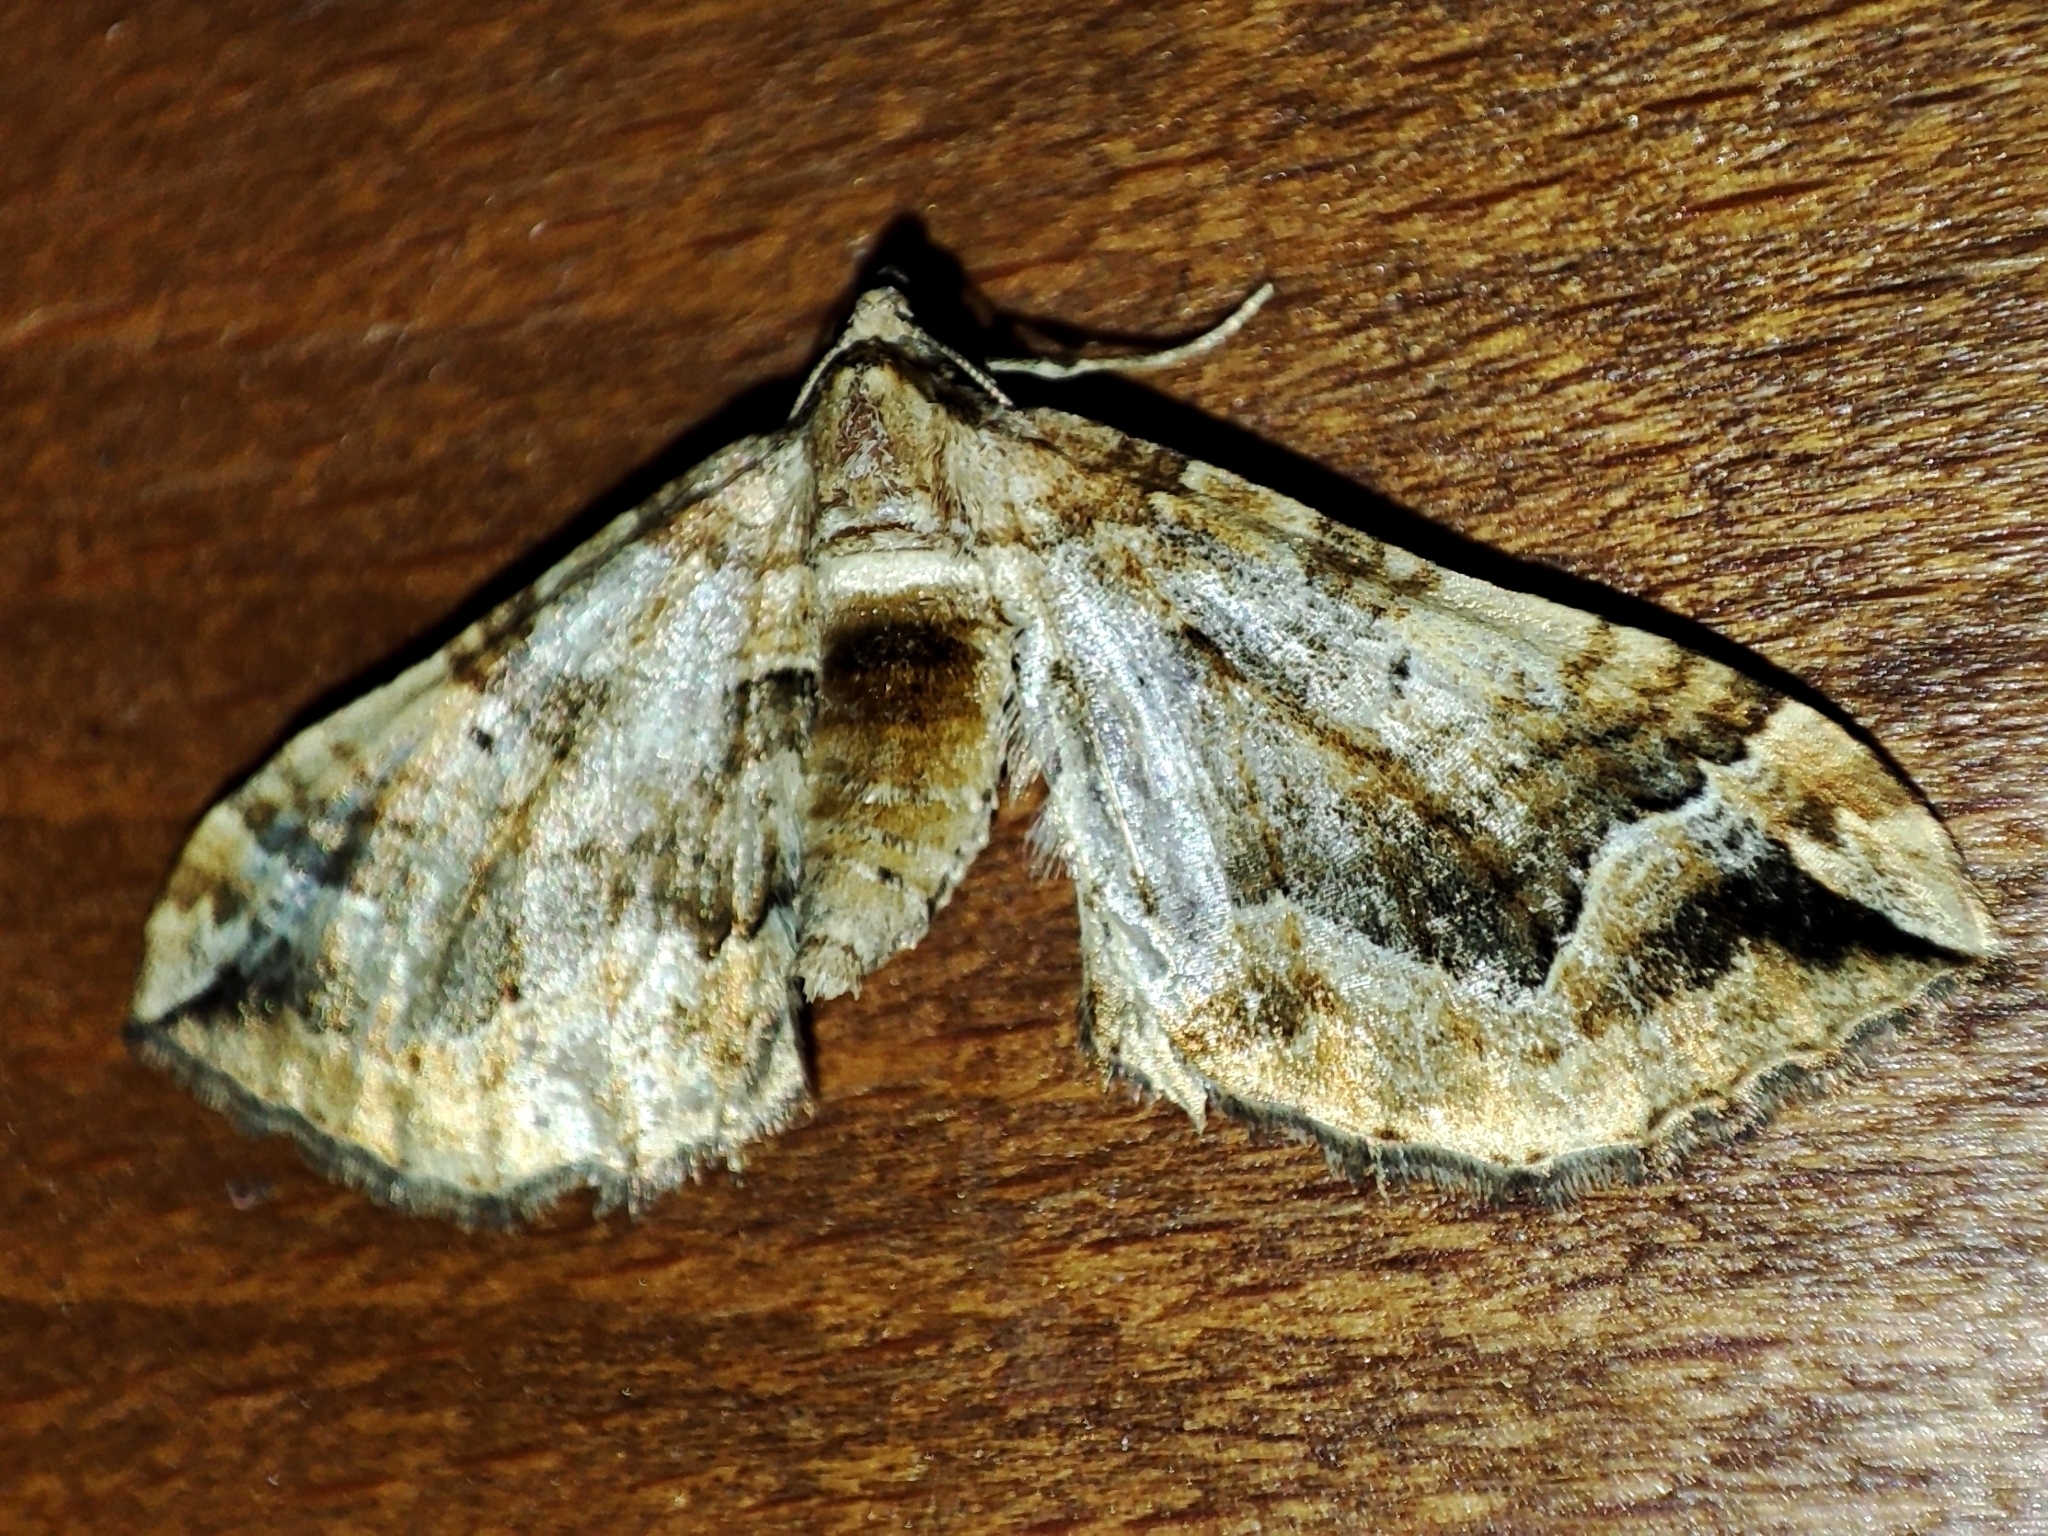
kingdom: Animalia
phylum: Arthropoda
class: Insecta
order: Lepidoptera
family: Geometridae
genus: Pelurga
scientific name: Pelurga comitata
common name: Dark spinach
